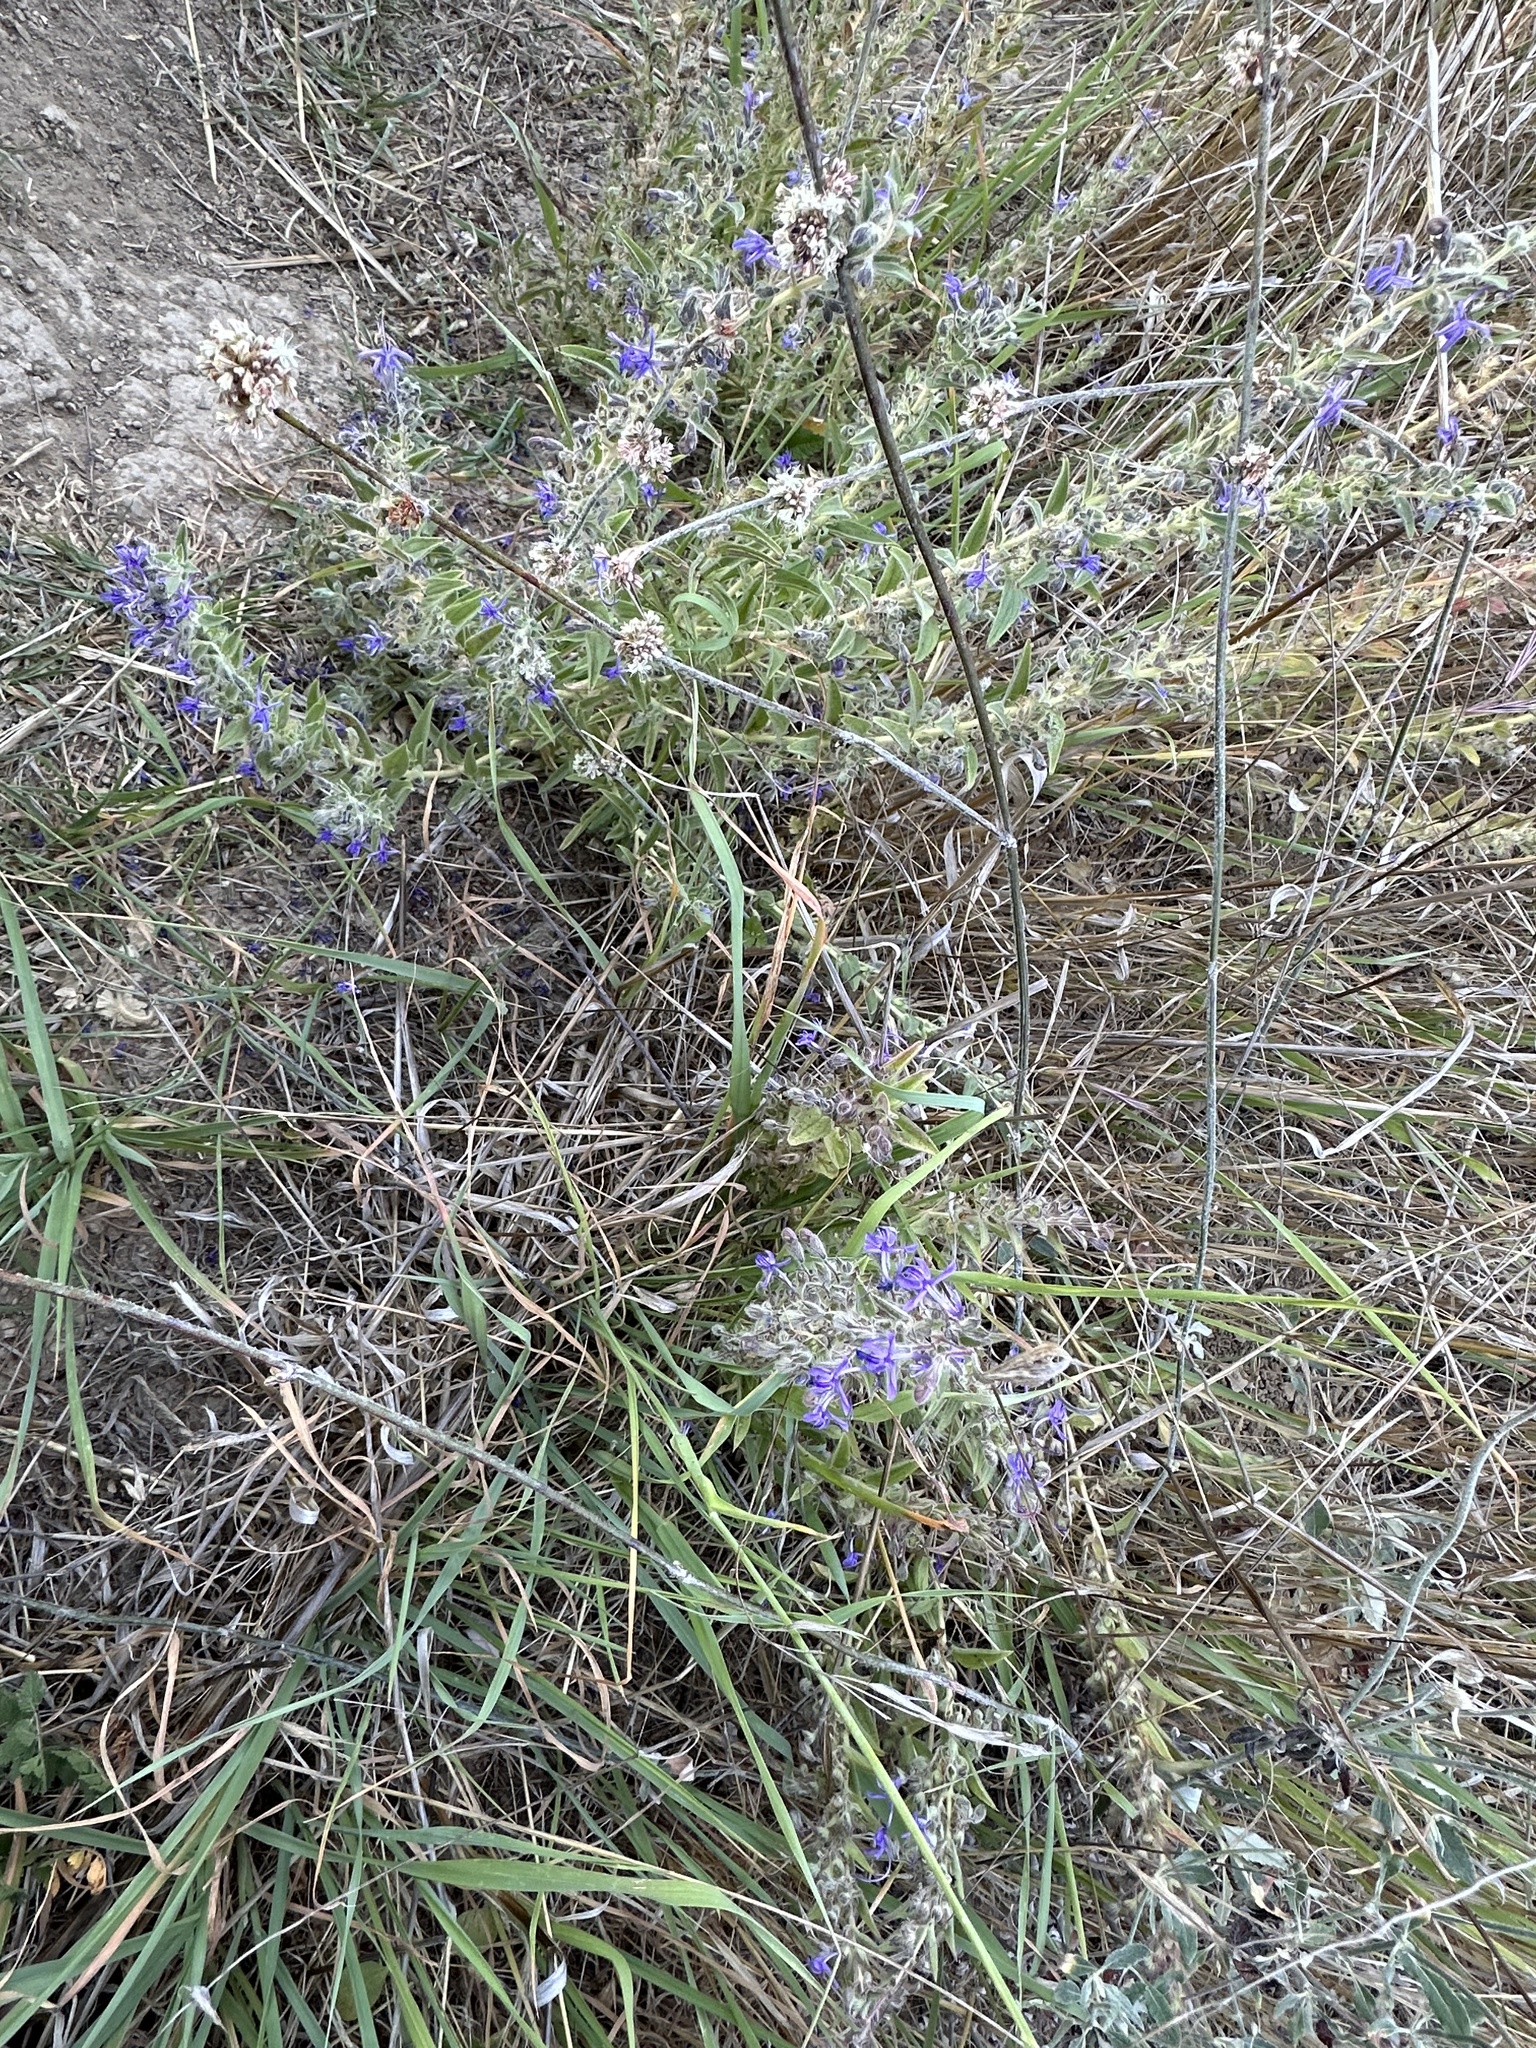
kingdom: Plantae
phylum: Tracheophyta
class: Magnoliopsida
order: Lamiales
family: Lamiaceae
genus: Trichostema
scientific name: Trichostema lanceolatum
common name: Vinegar-weed
